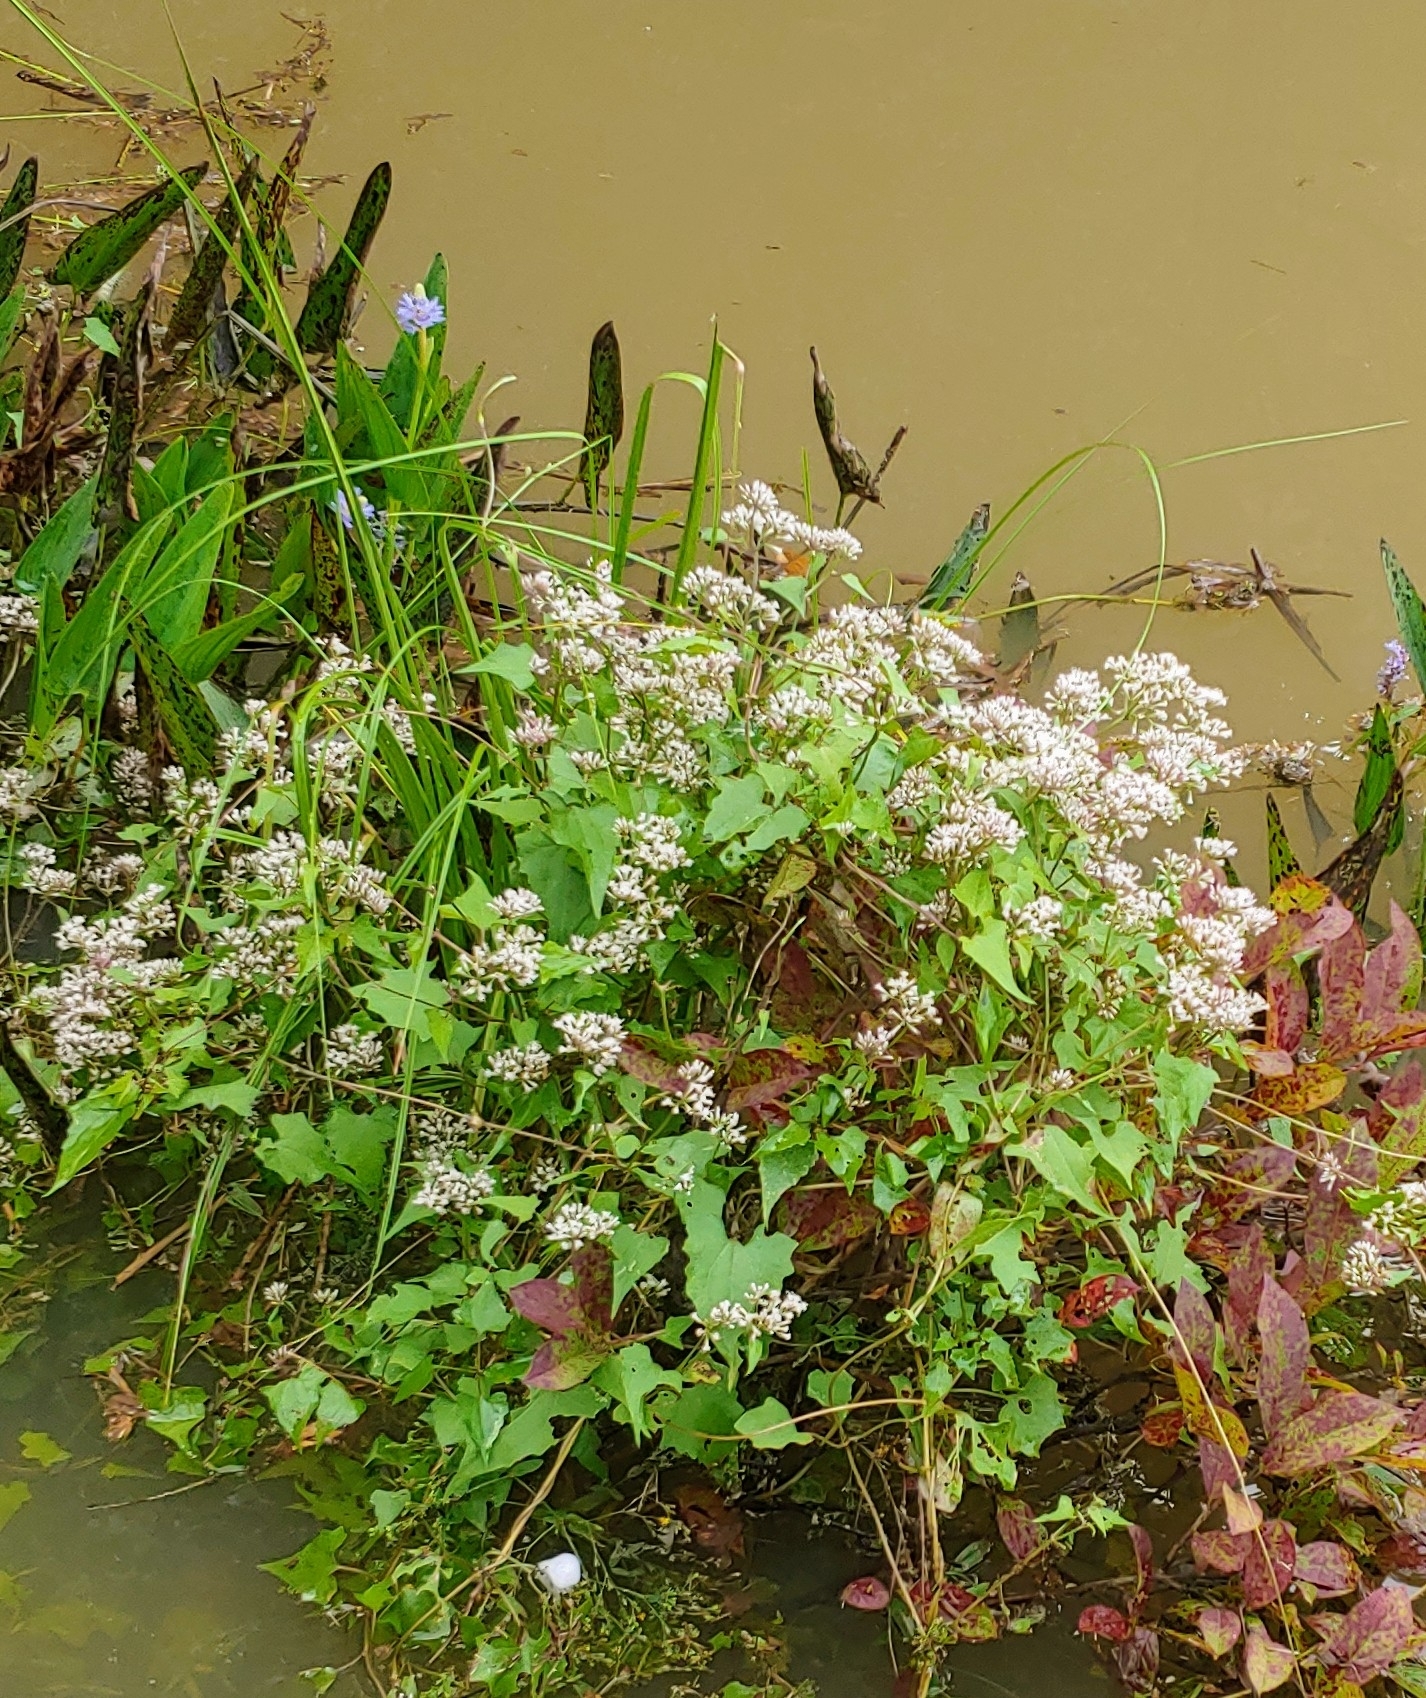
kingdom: Plantae
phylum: Tracheophyta
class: Magnoliopsida
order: Asterales
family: Asteraceae
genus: Mikania
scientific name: Mikania scandens
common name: Climbing hempvine
